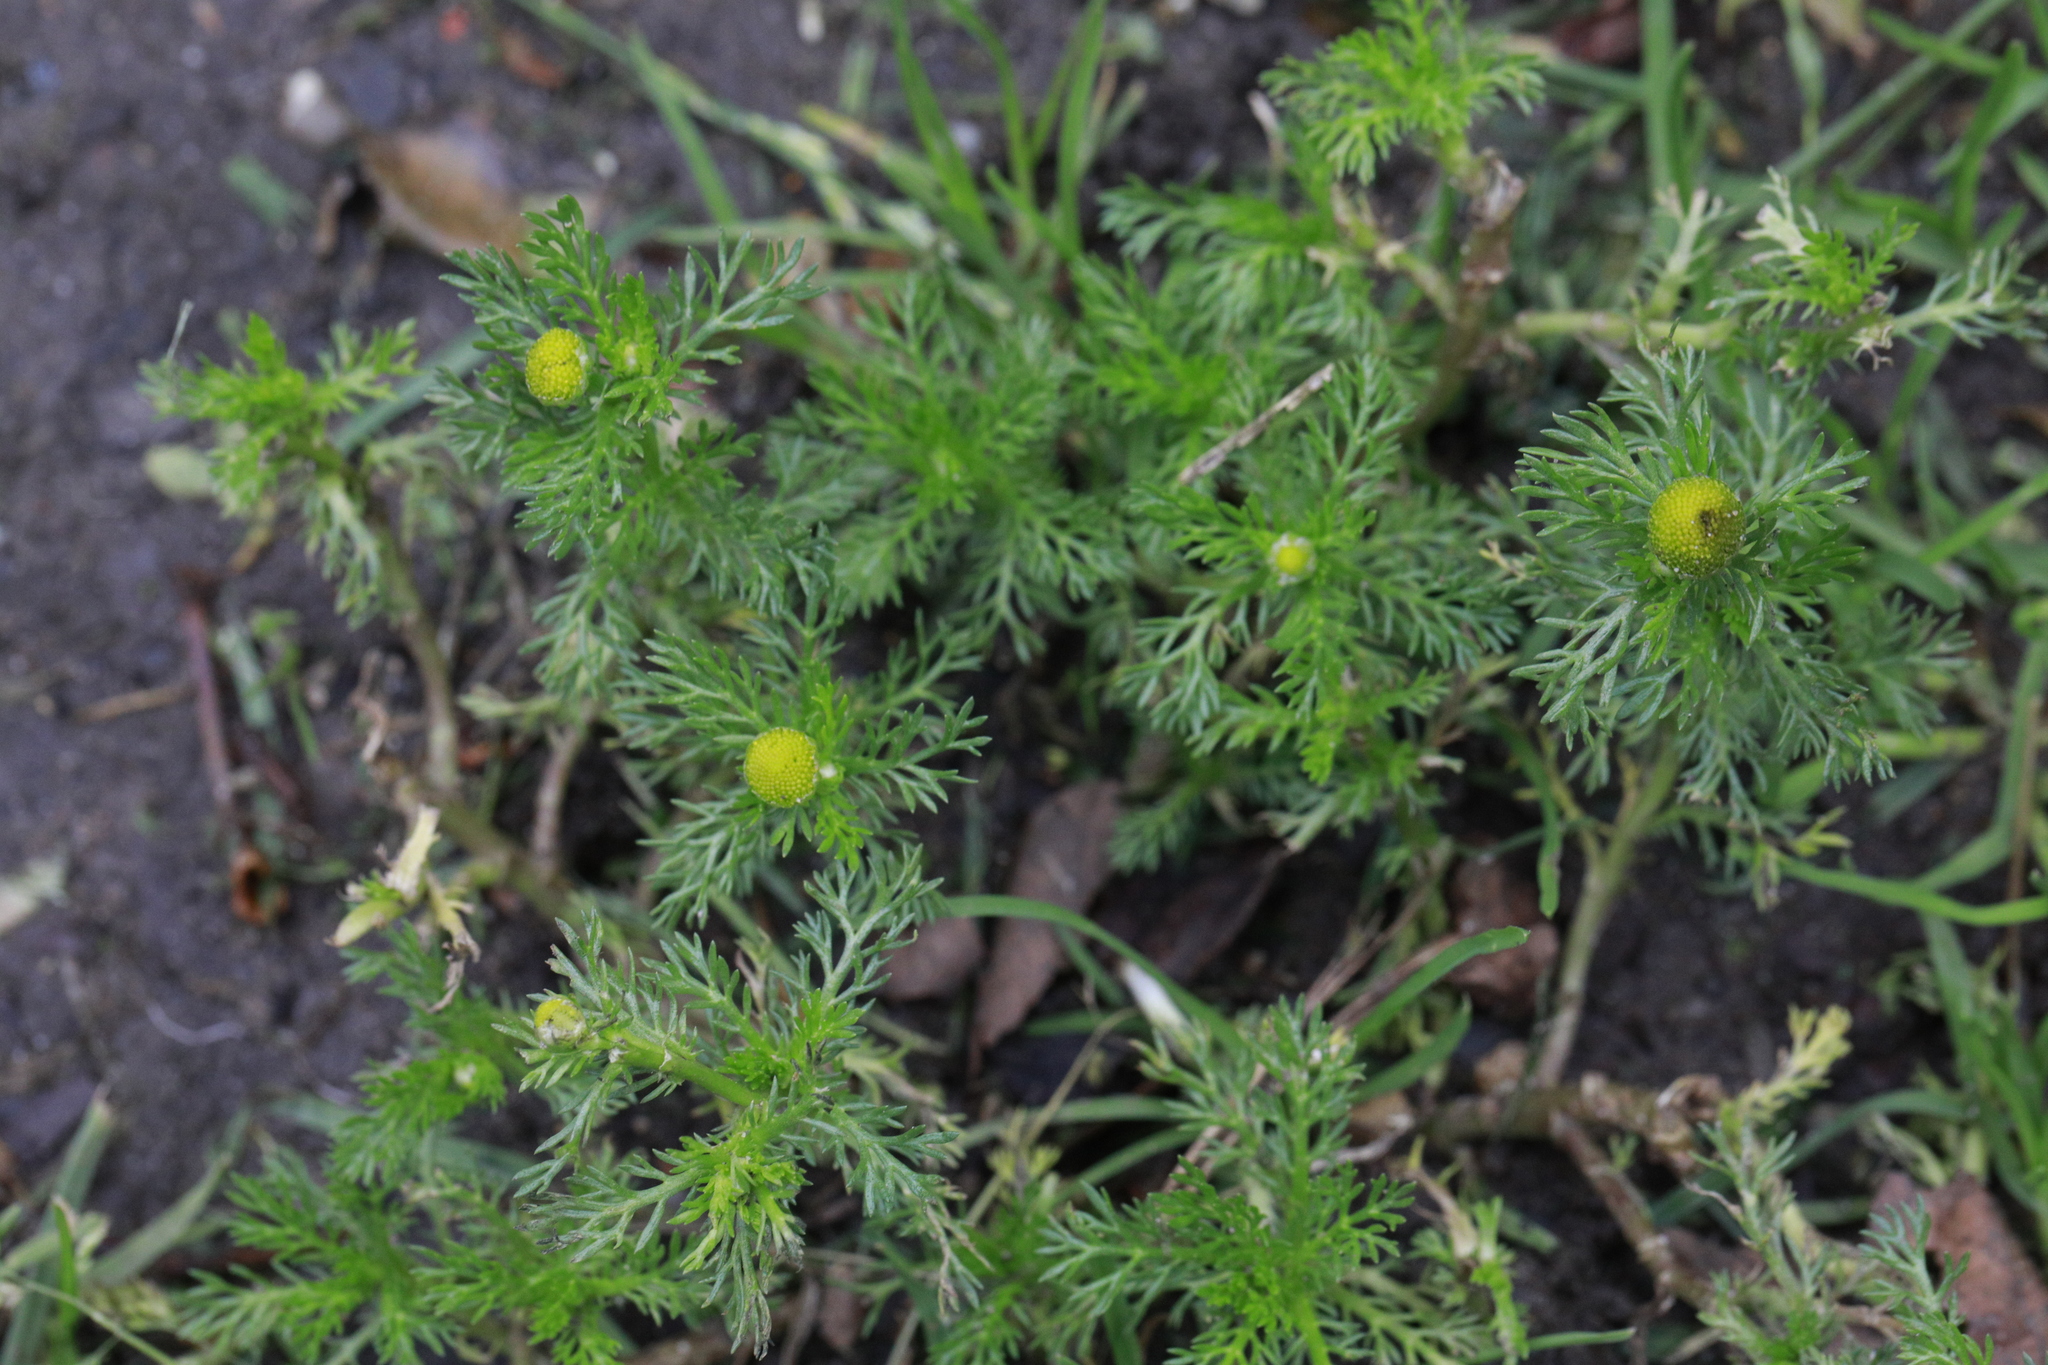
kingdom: Plantae
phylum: Tracheophyta
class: Magnoliopsida
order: Asterales
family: Asteraceae
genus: Matricaria
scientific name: Matricaria discoidea
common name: Disc mayweed
